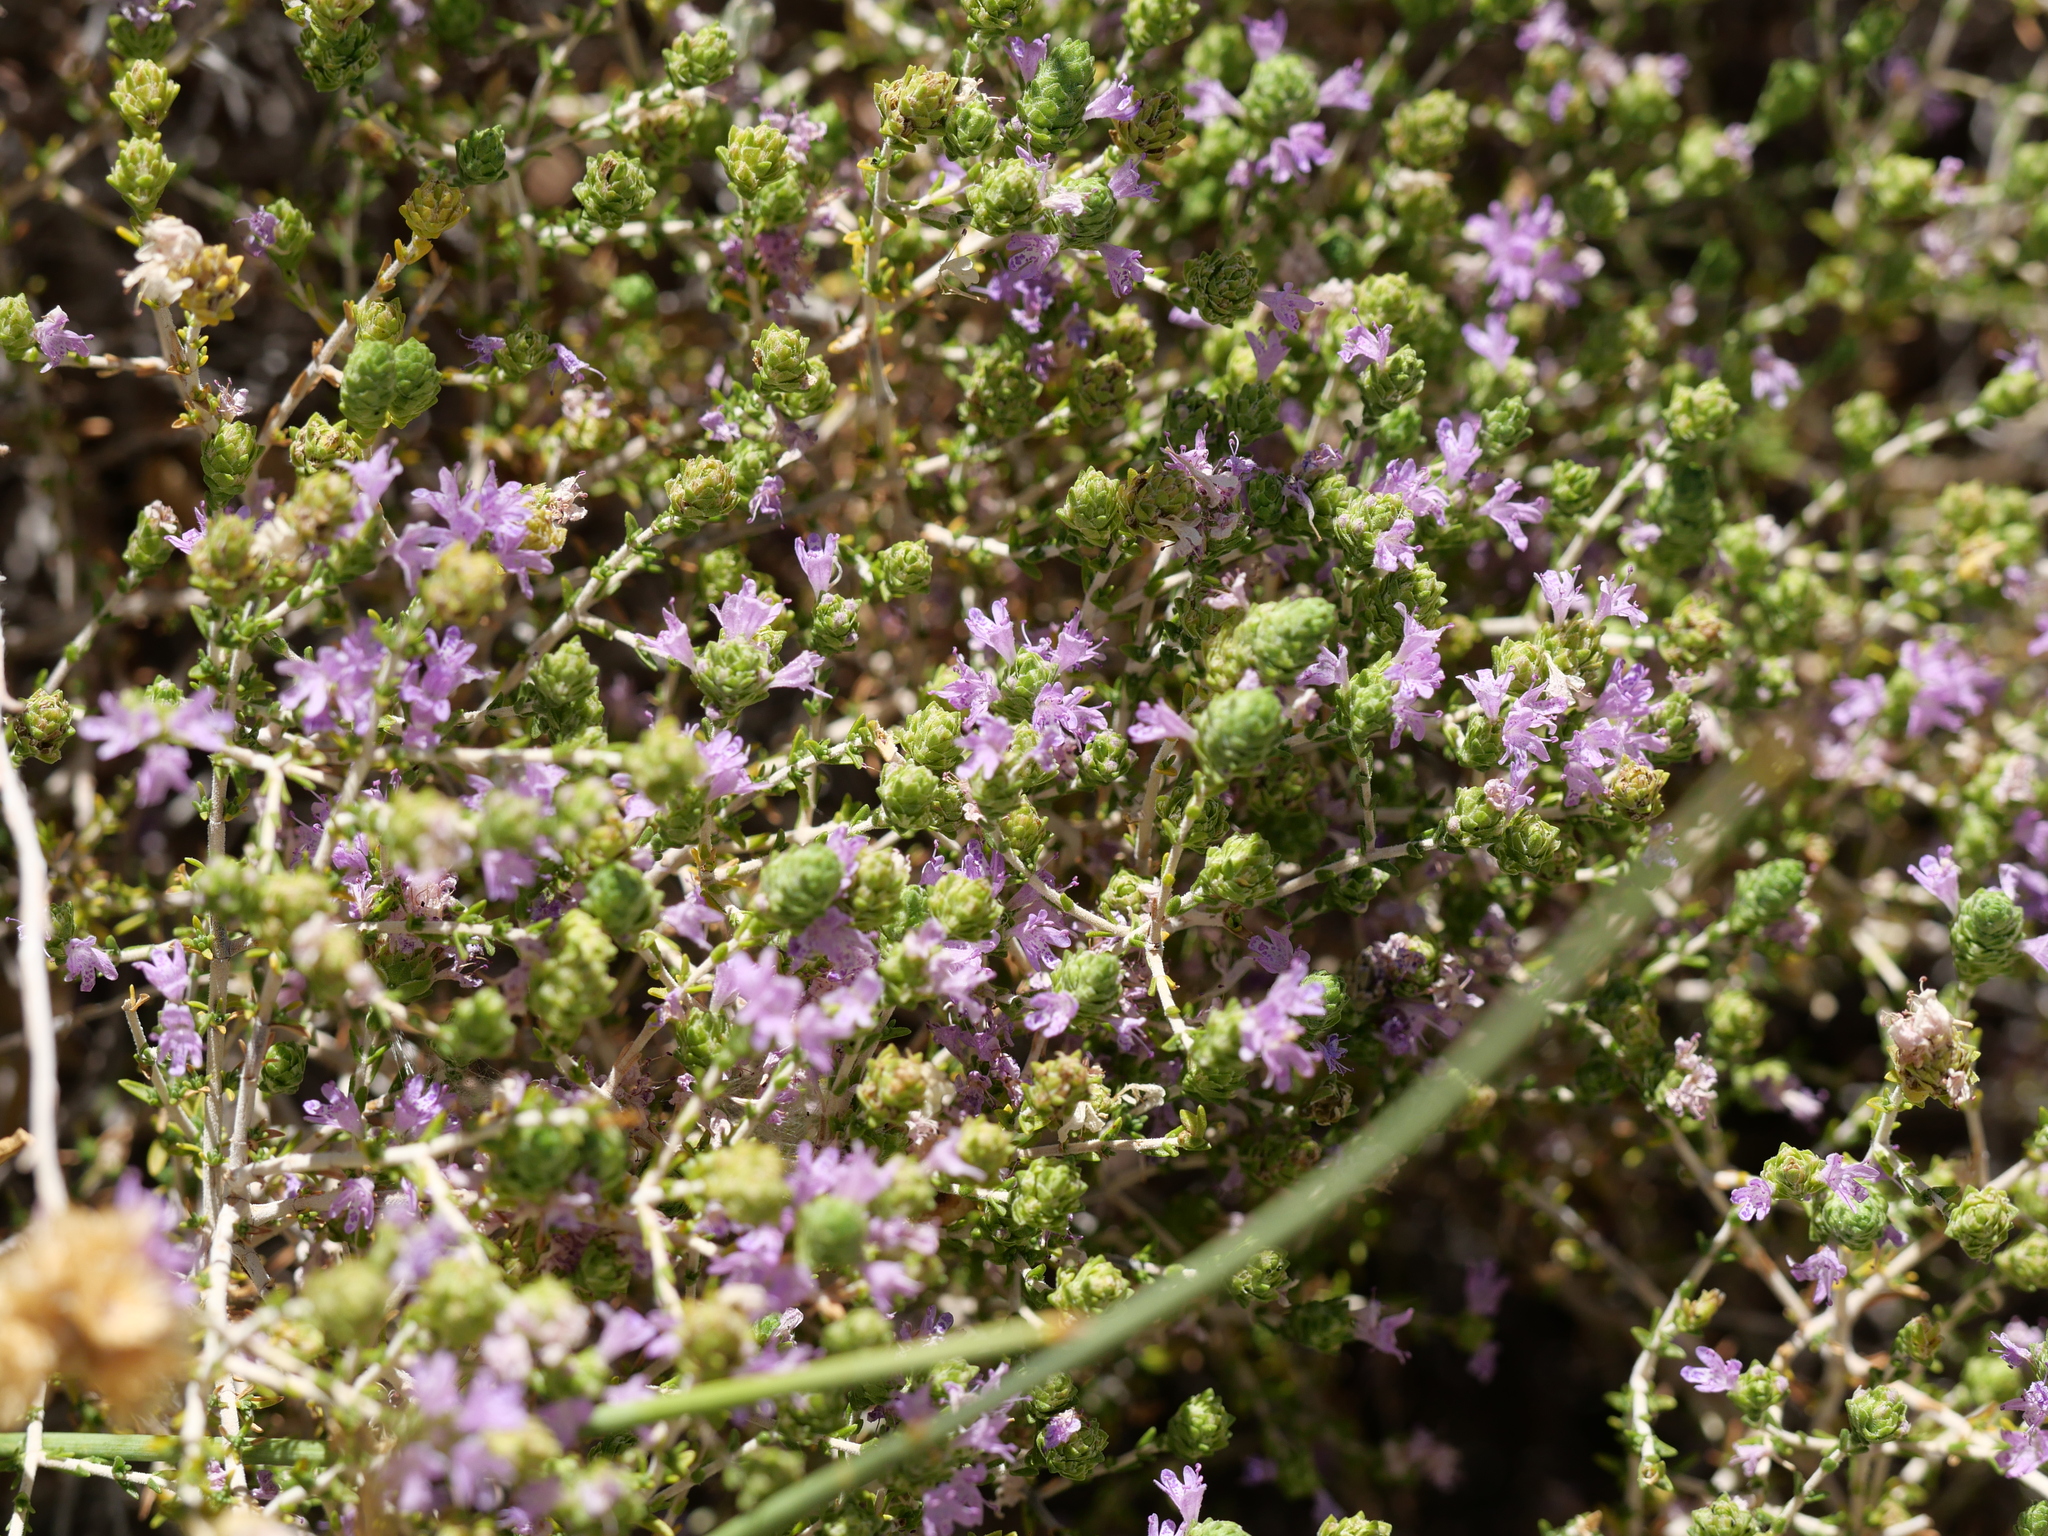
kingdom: Plantae
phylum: Tracheophyta
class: Magnoliopsida
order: Lamiales
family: Lamiaceae
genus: Thymbra
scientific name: Thymbra capitata
